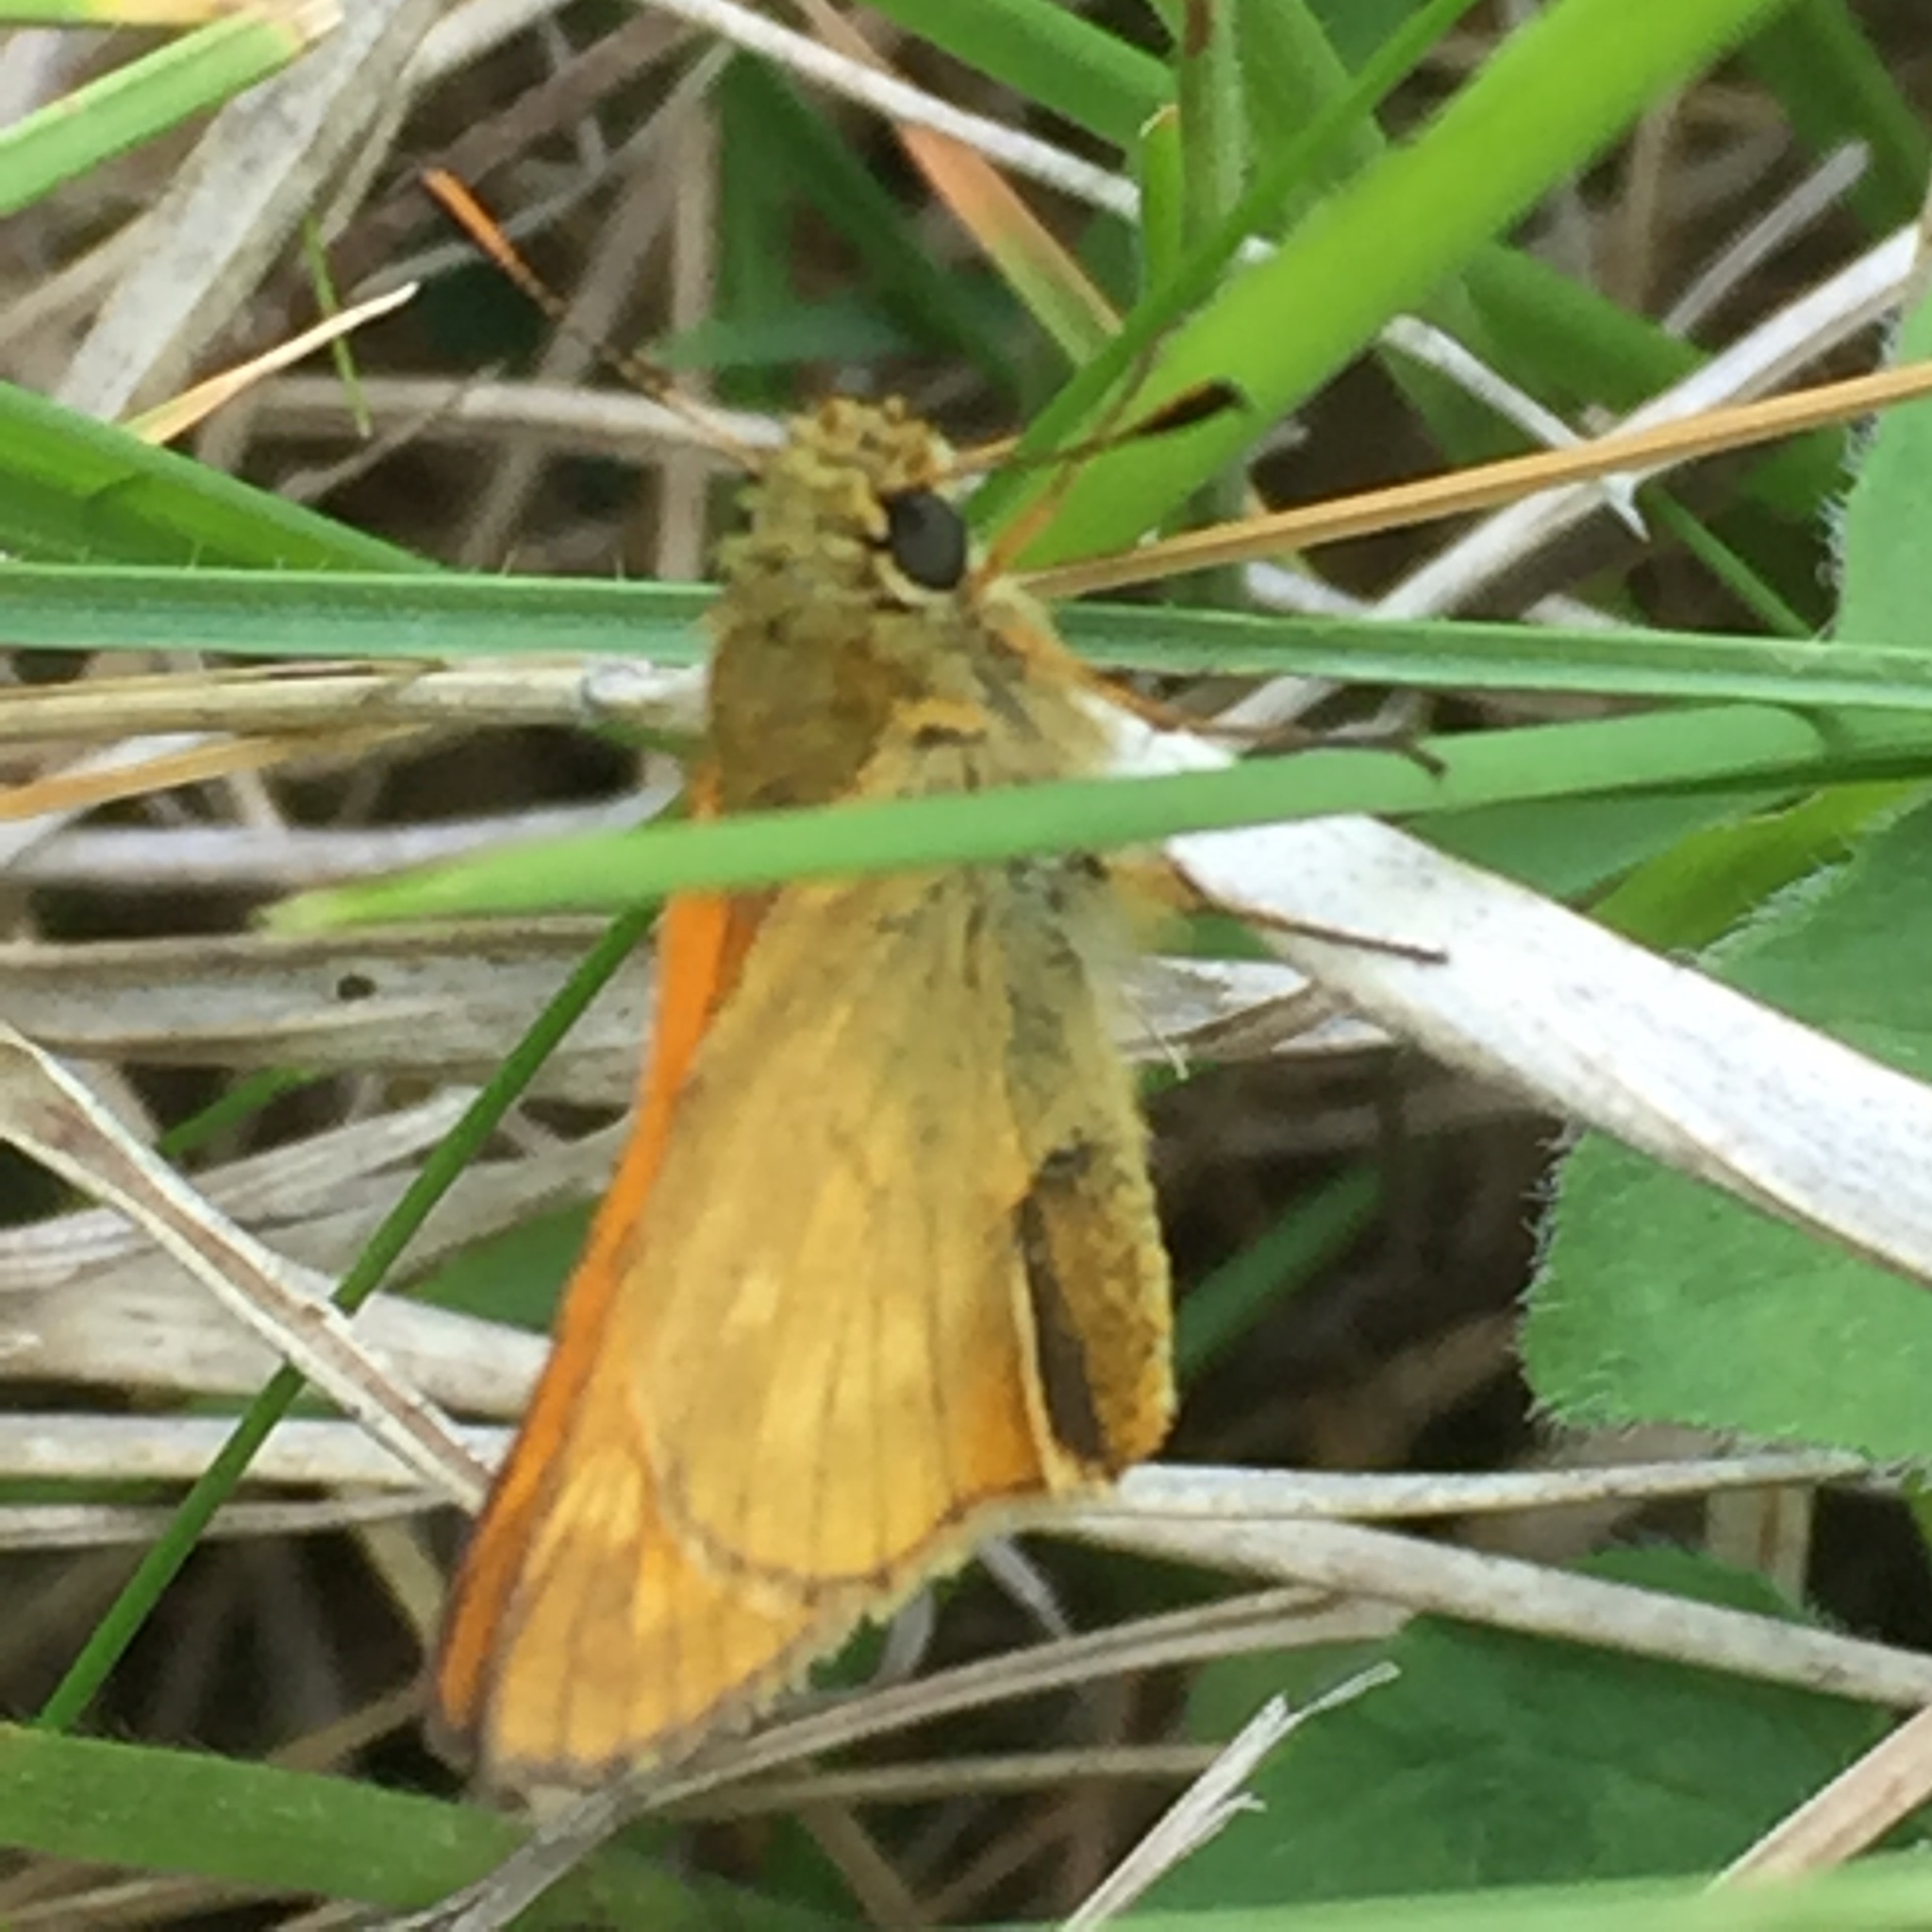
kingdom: Animalia
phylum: Arthropoda
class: Insecta
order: Lepidoptera
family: Hesperiidae
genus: Ochlodes
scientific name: Ochlodes venata
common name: Large skipper
